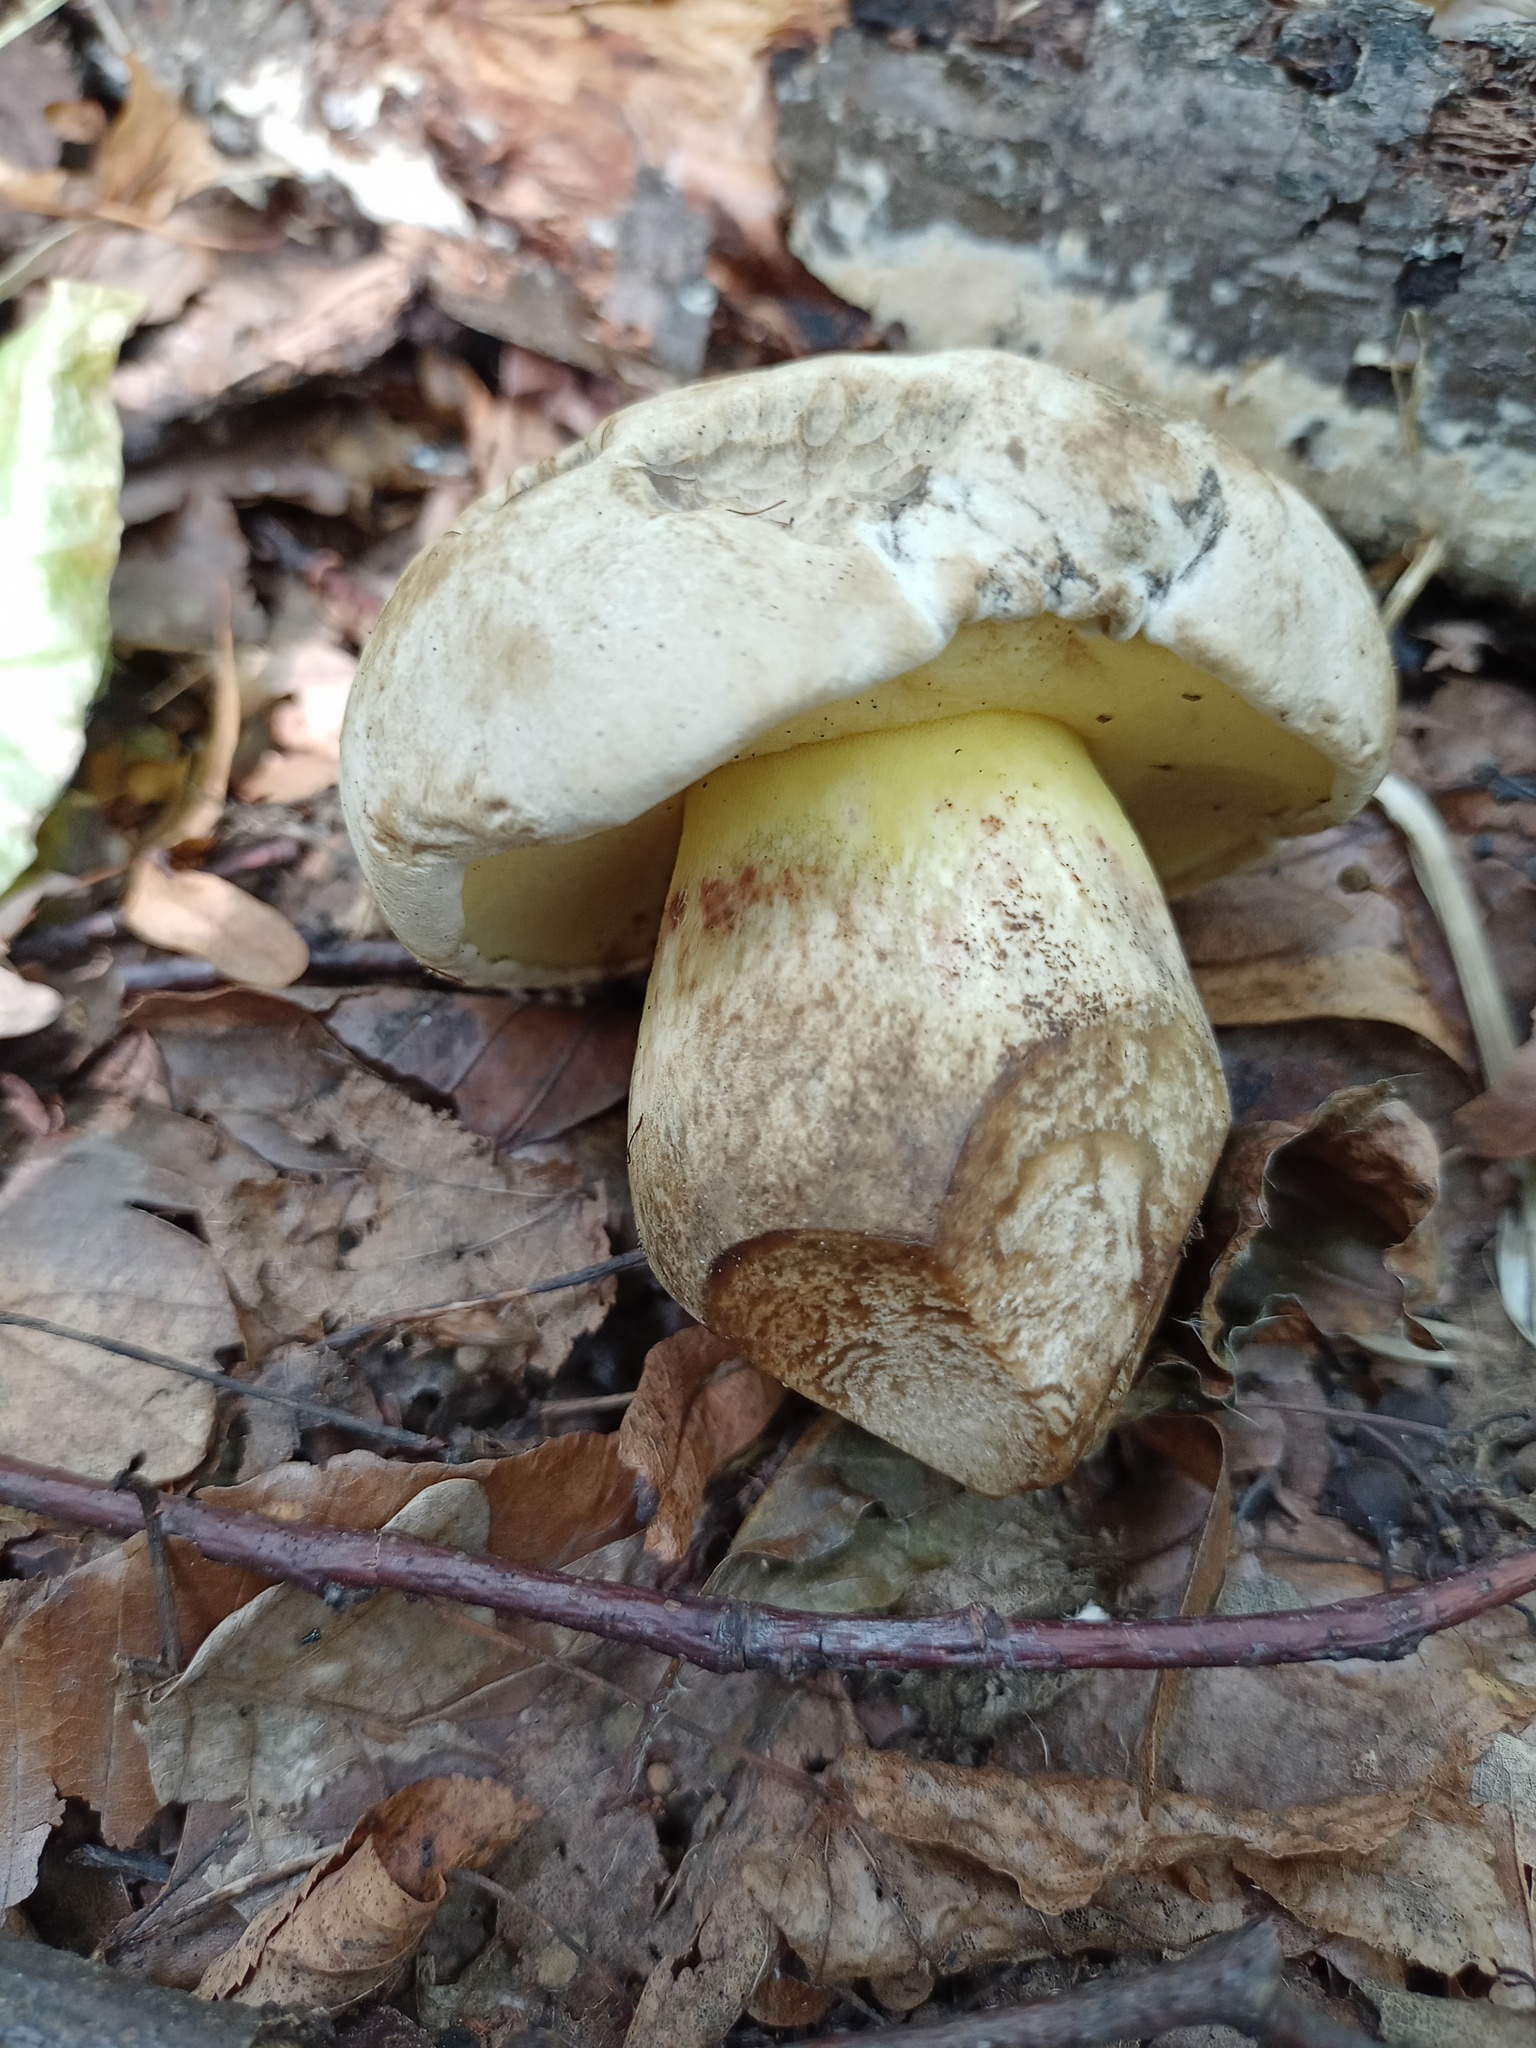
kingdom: Fungi
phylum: Basidiomycota
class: Agaricomycetes
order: Boletales
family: Boletaceae
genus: Caloboletus
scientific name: Caloboletus radicans
